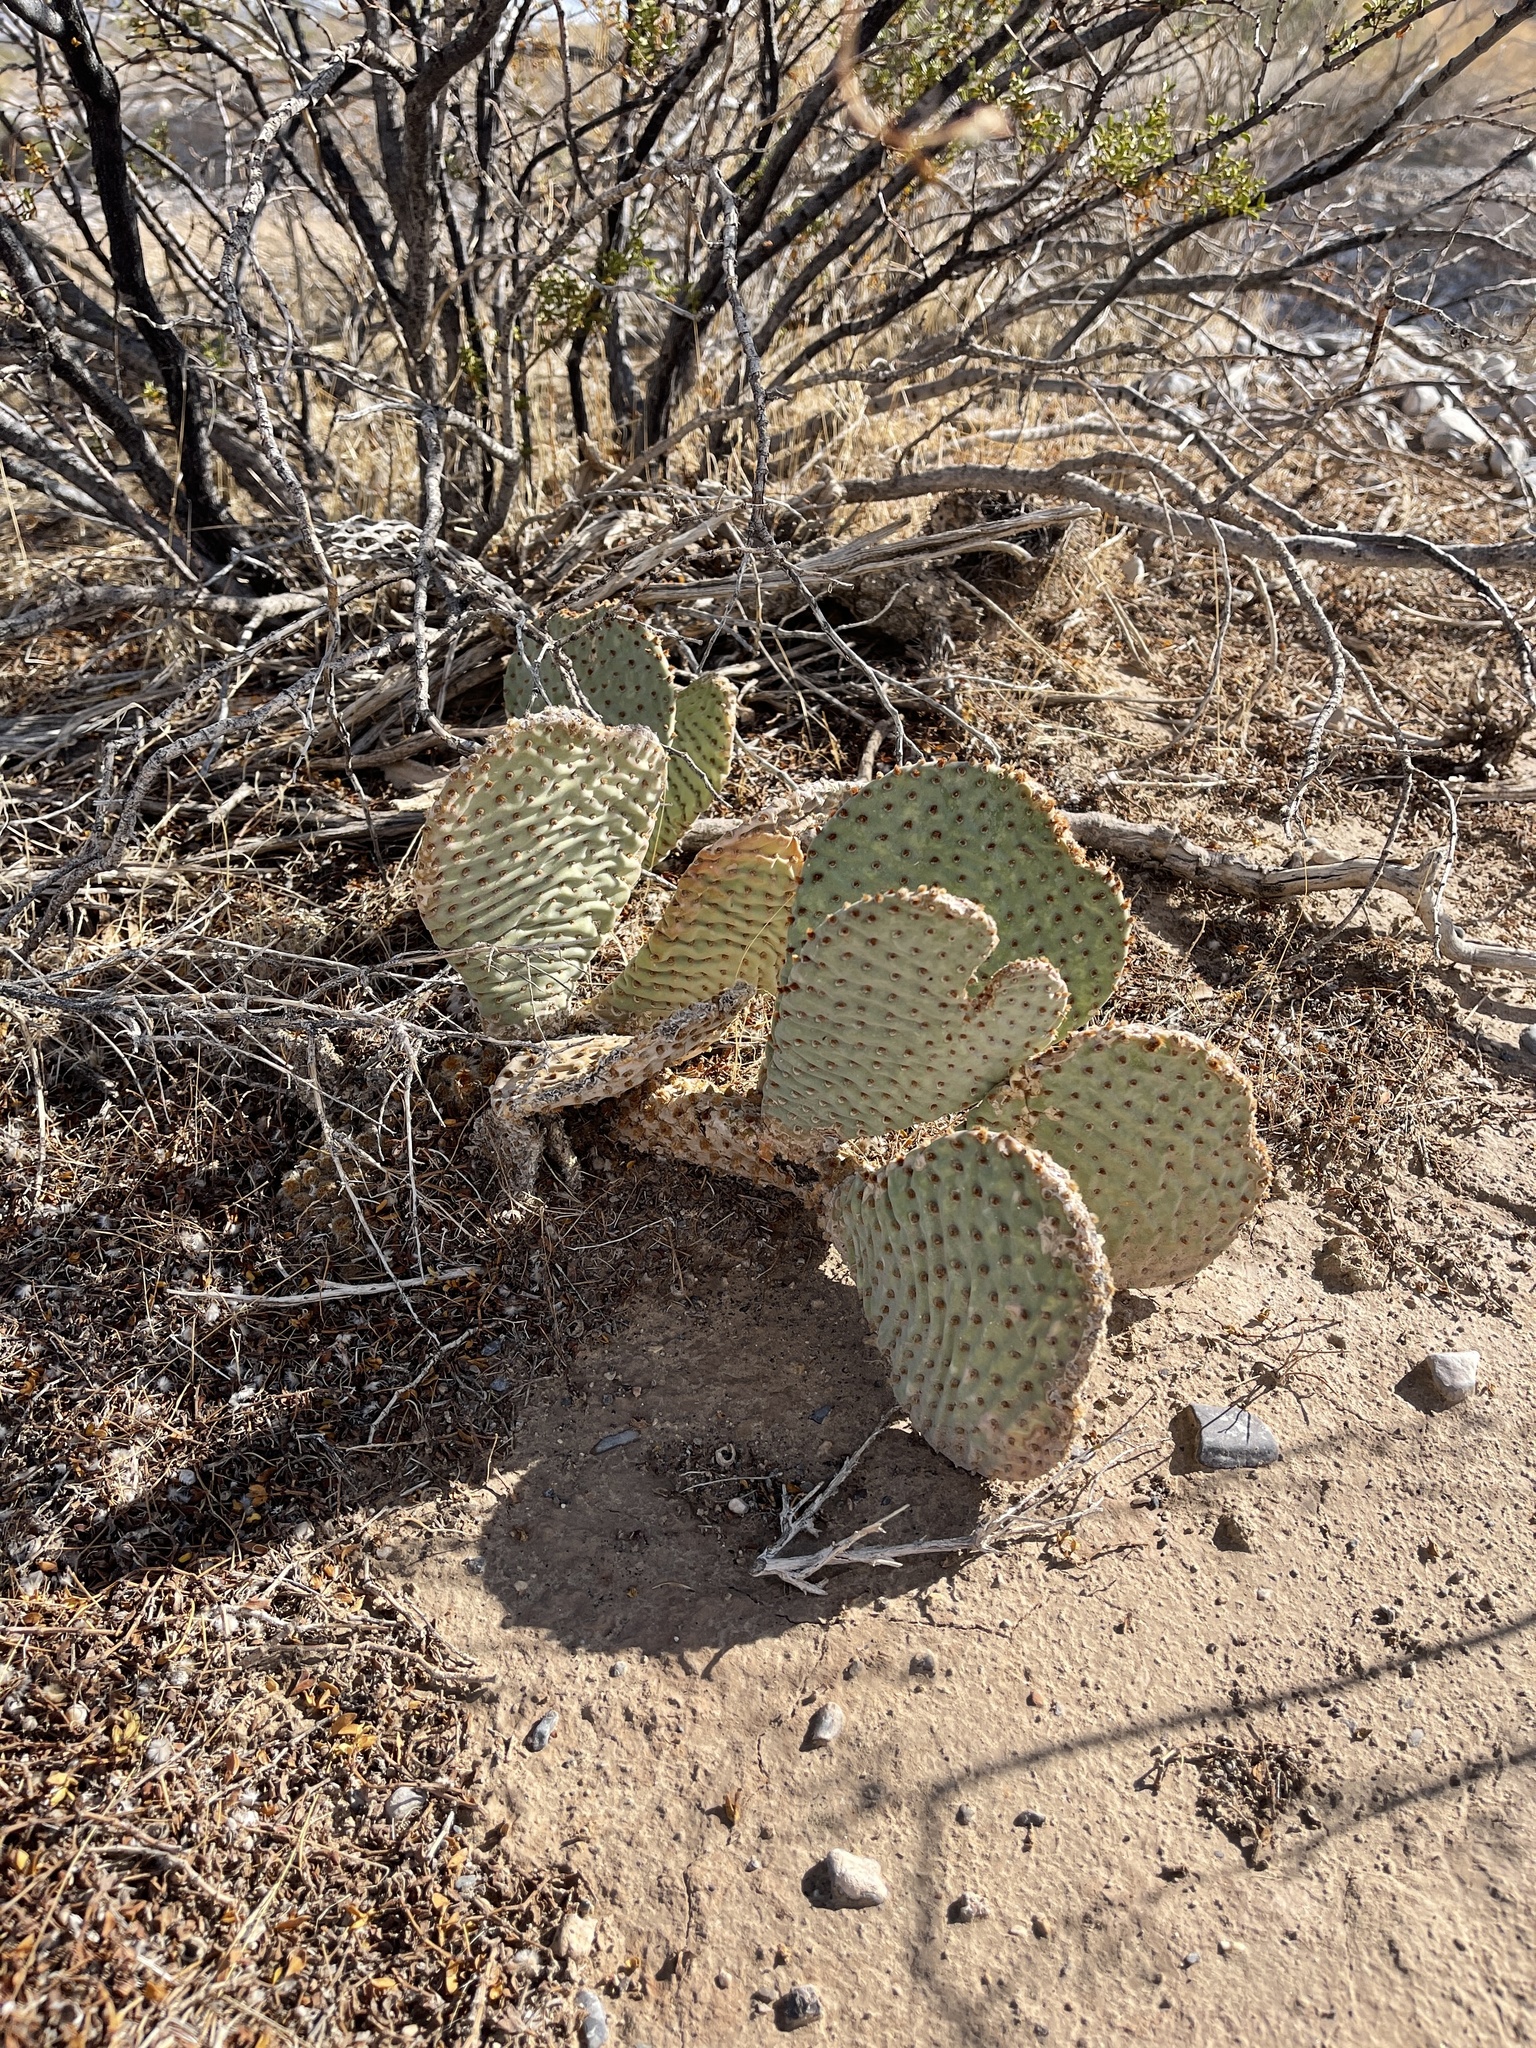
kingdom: Plantae
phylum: Tracheophyta
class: Magnoliopsida
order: Caryophyllales
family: Cactaceae
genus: Opuntia
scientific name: Opuntia basilaris
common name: Beavertail prickly-pear
